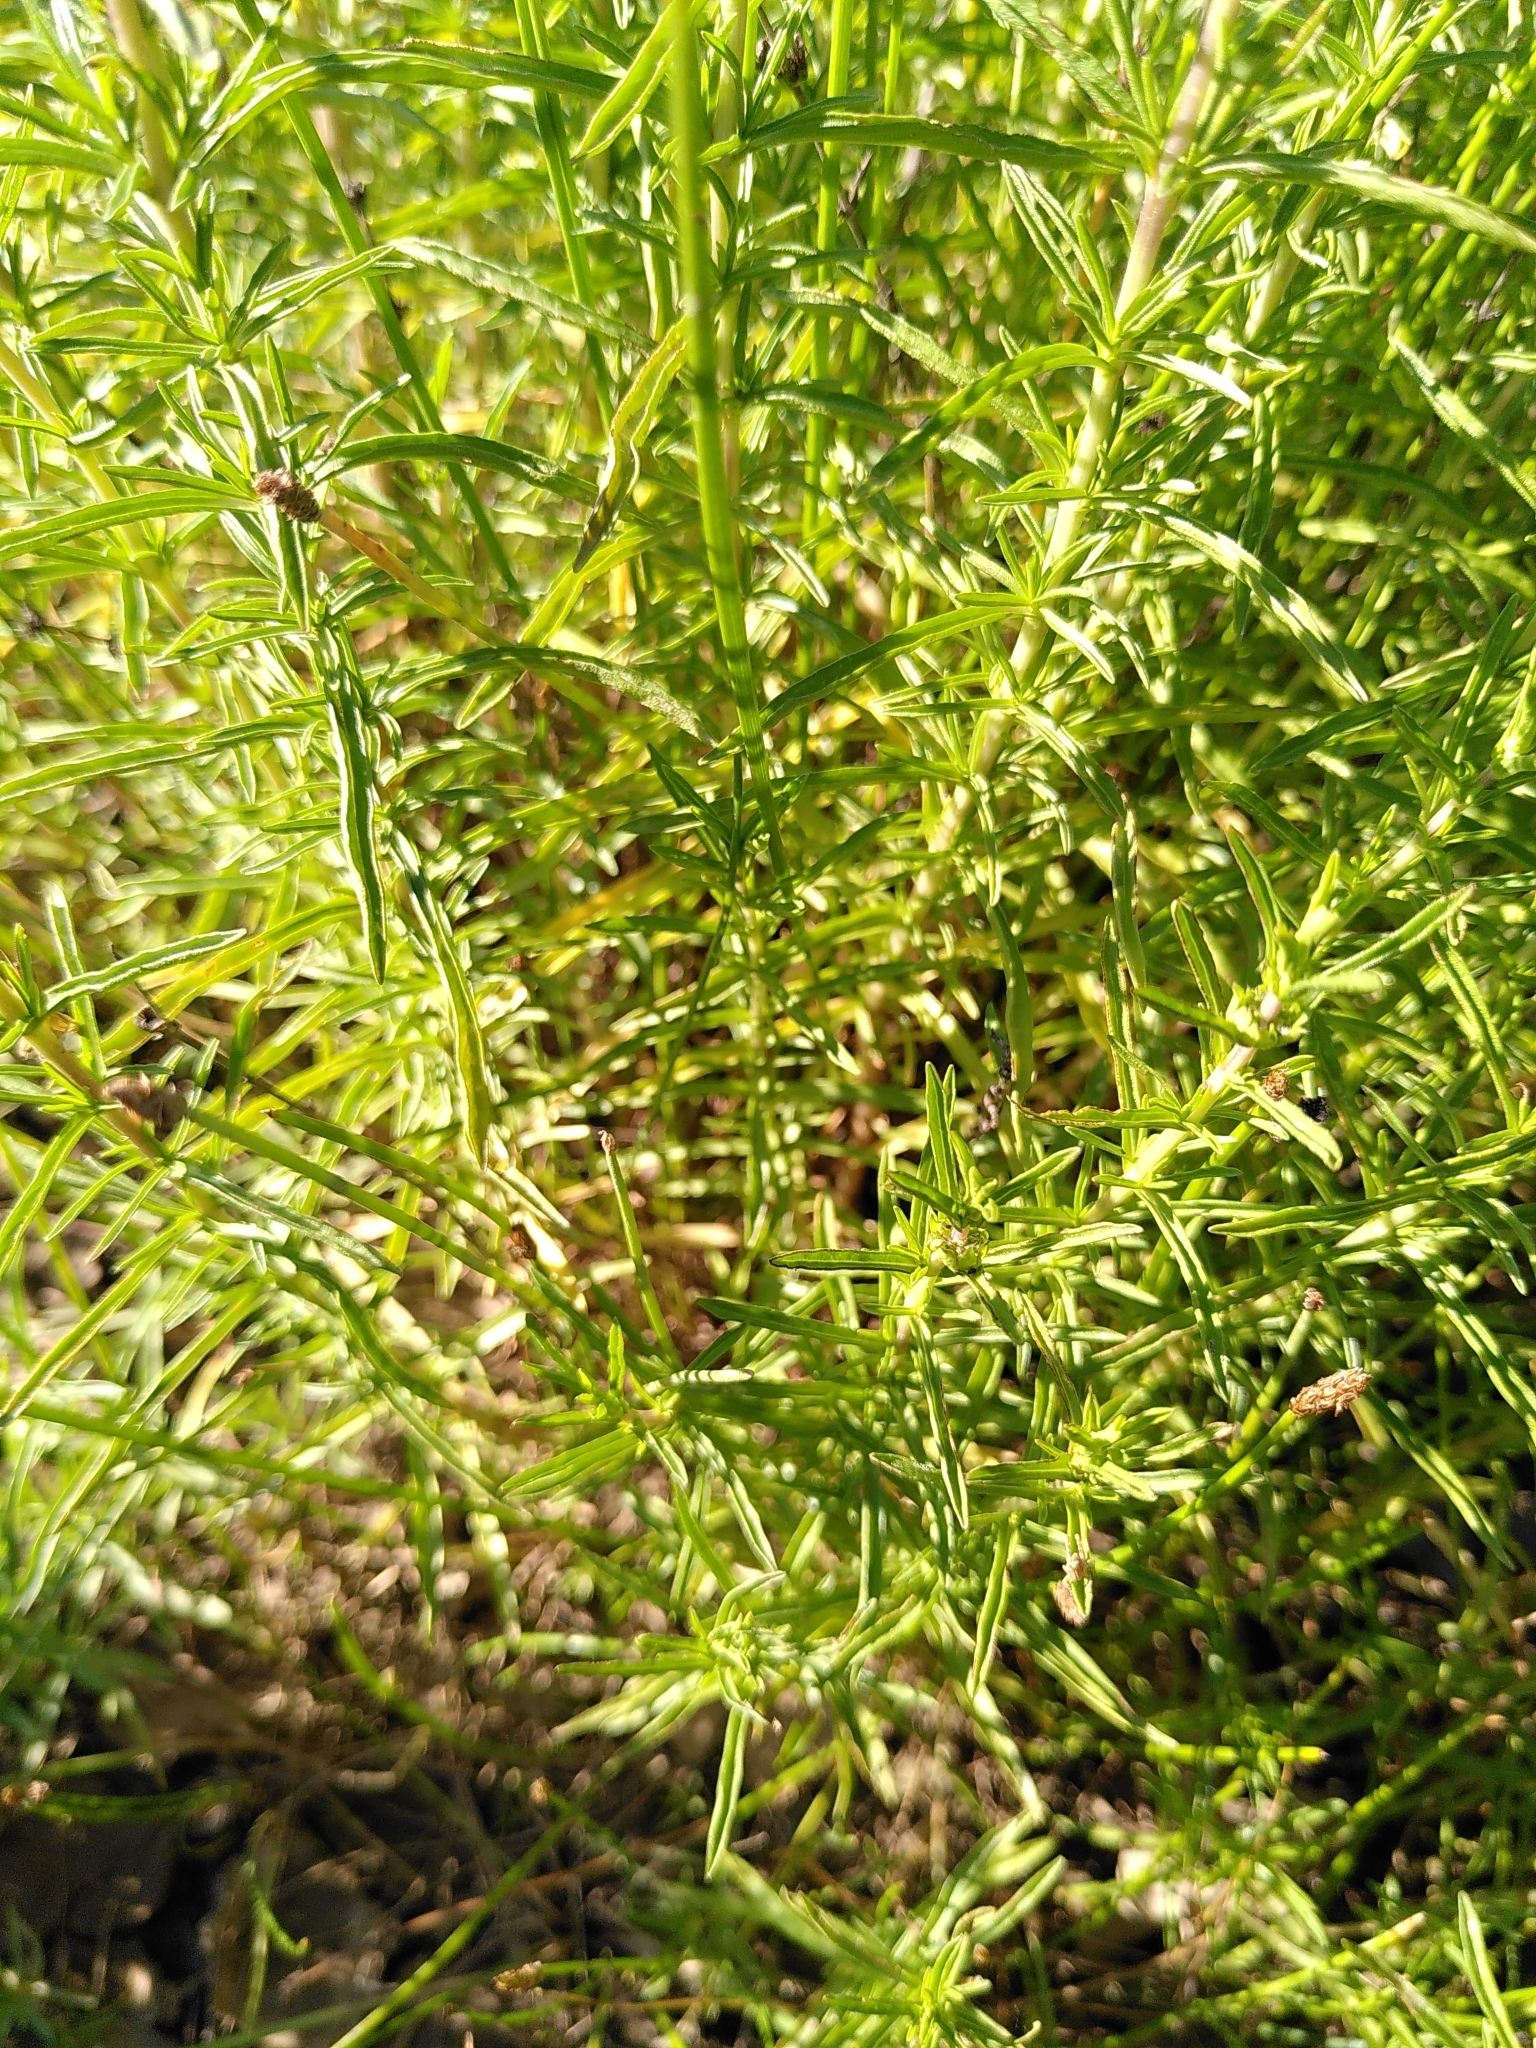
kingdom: Plantae
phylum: Tracheophyta
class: Magnoliopsida
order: Lamiales
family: Lamiaceae
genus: Mentha
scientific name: Mentha cervina
